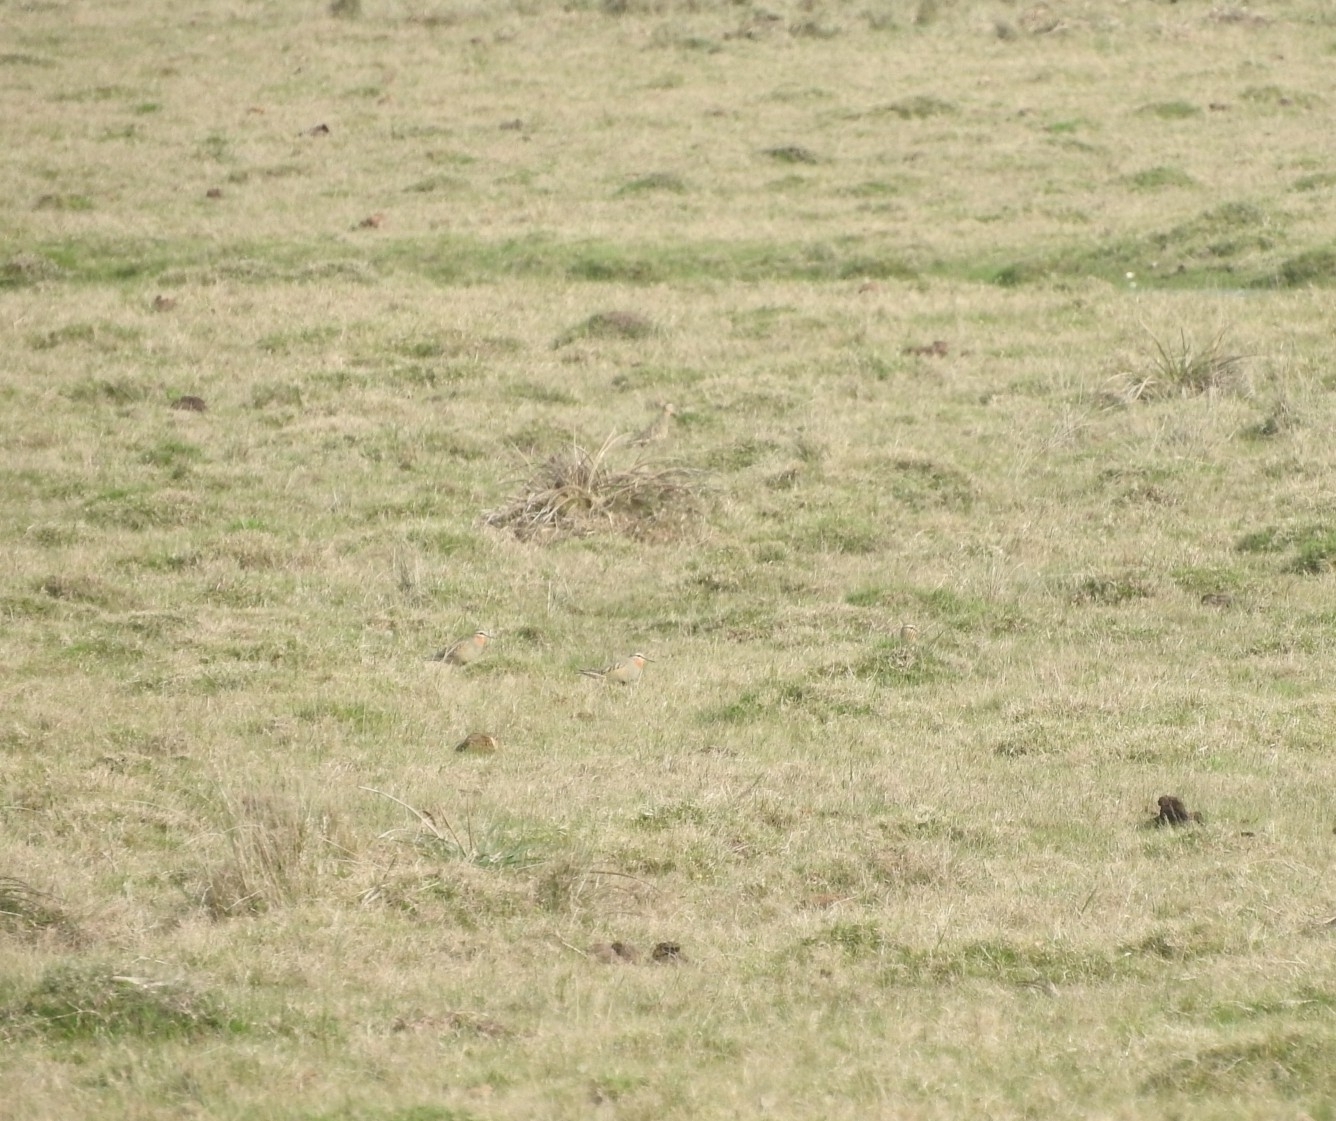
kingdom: Animalia
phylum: Chordata
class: Aves
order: Charadriiformes
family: Charadriidae
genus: Oreopholus
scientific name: Oreopholus ruficollis
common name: Tawny-throated dotterel
